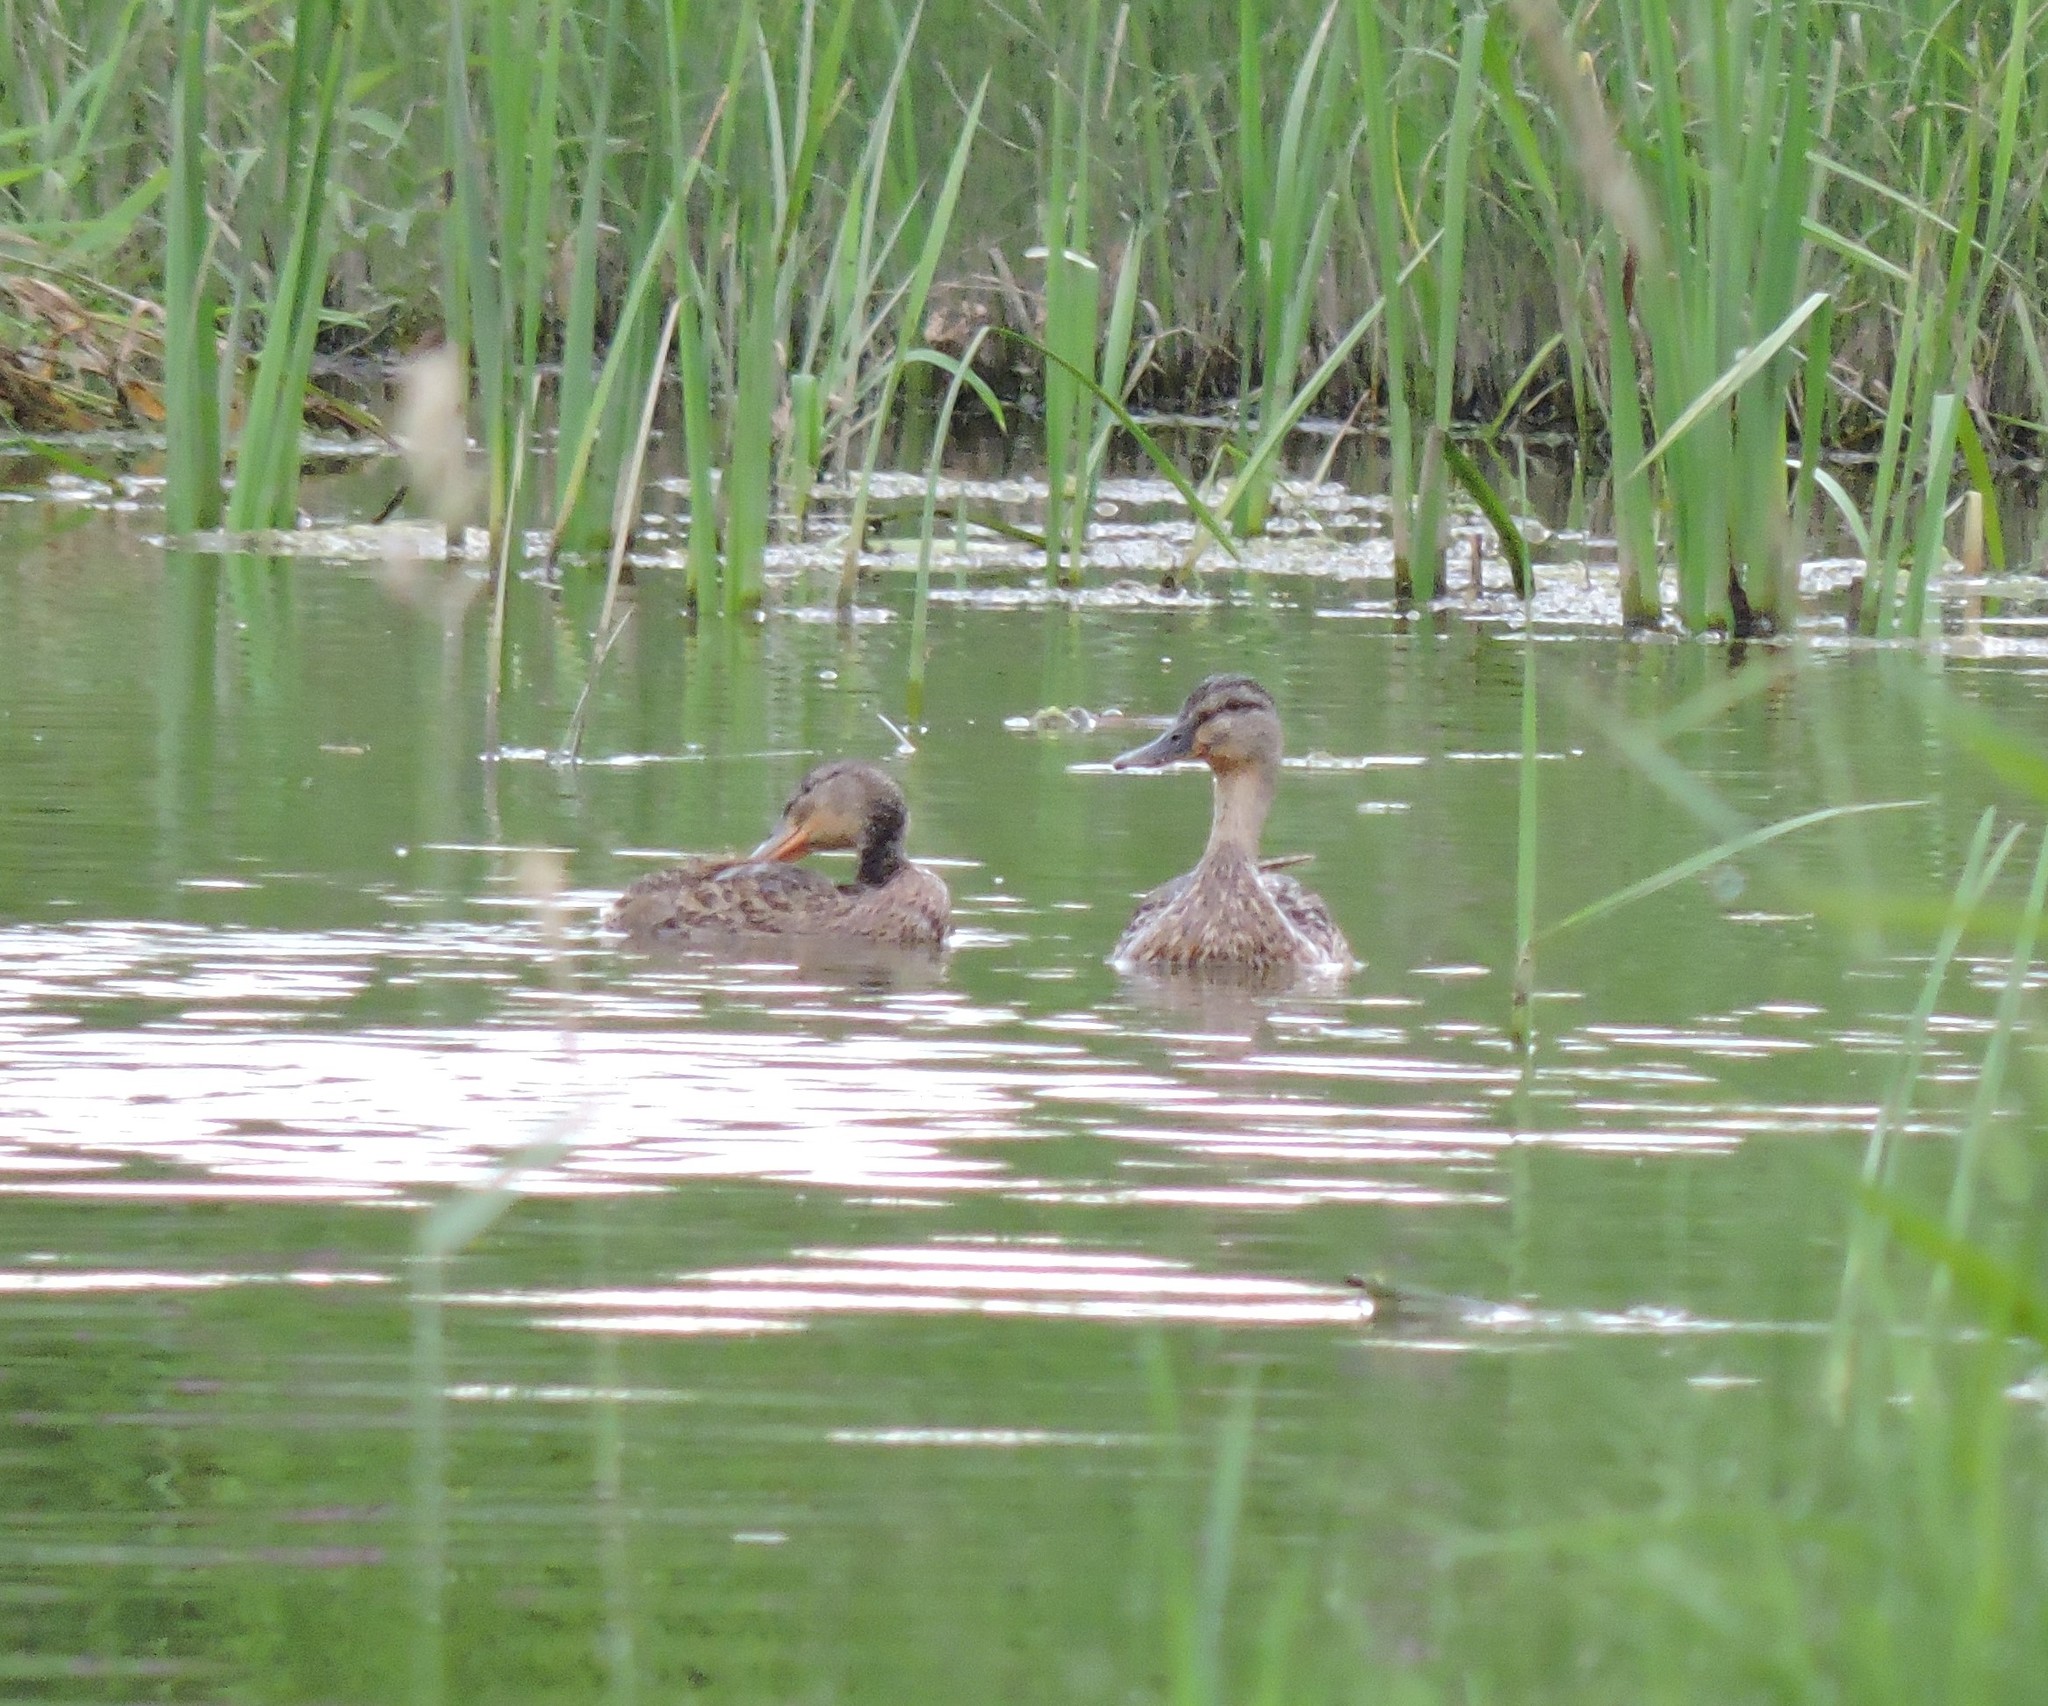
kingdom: Animalia
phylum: Chordata
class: Aves
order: Anseriformes
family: Anatidae
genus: Anas
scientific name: Anas platyrhynchos
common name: Mallard
